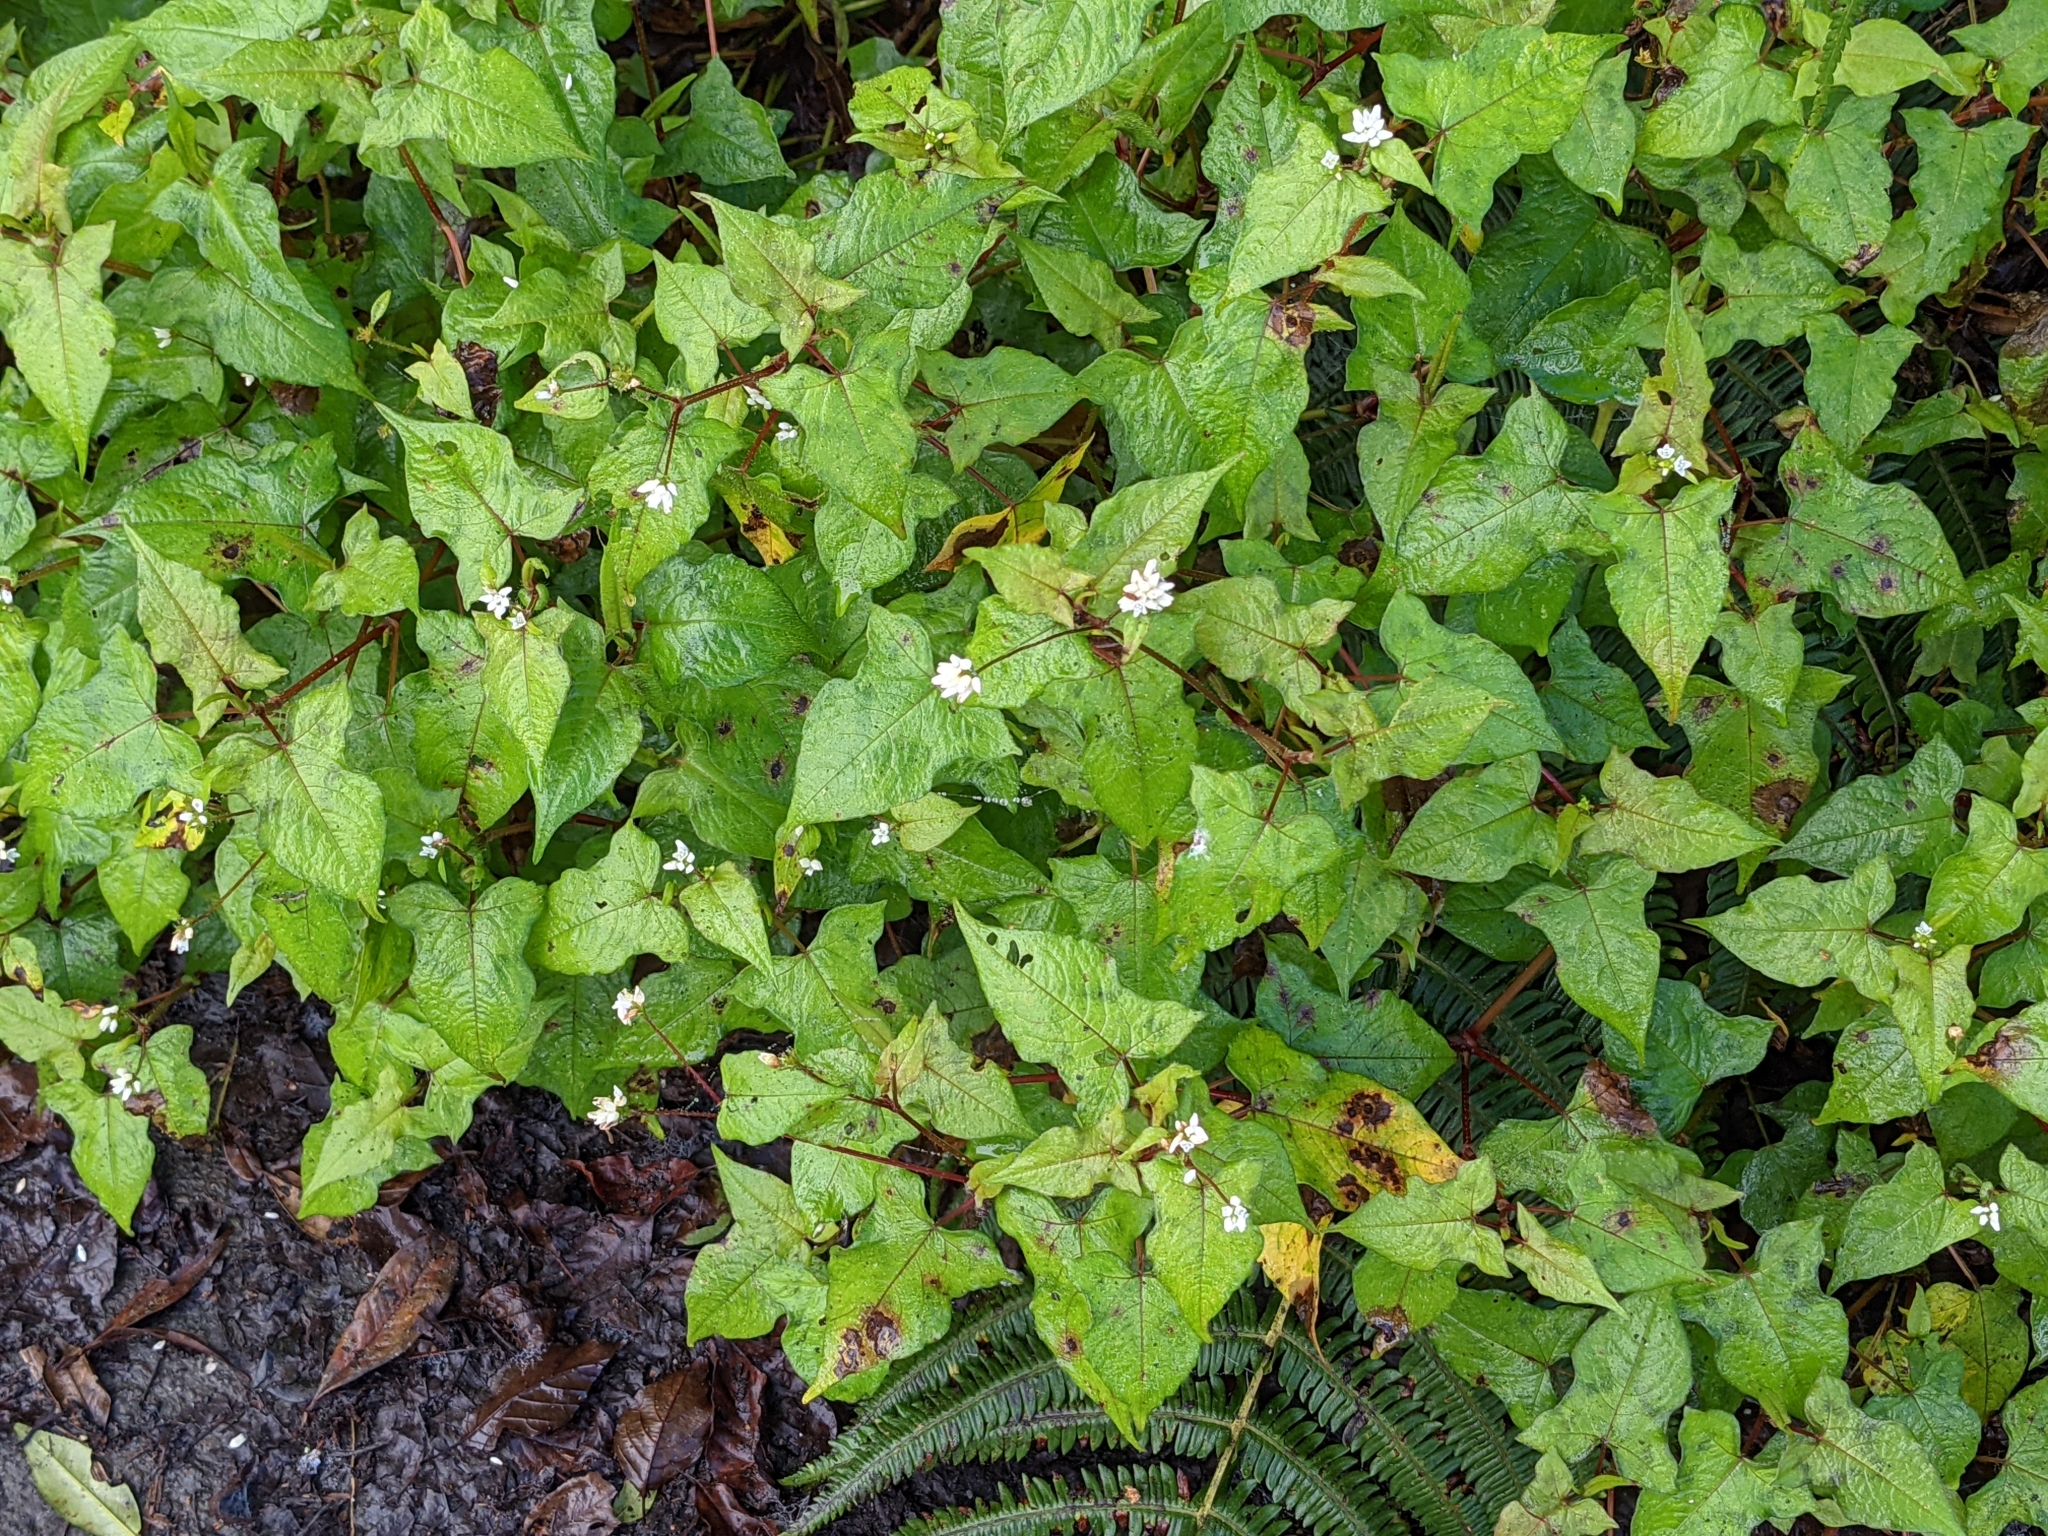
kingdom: Plantae
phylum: Tracheophyta
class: Magnoliopsida
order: Caryophyllales
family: Polygonaceae
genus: Persicaria
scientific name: Persicaria biconvexa
